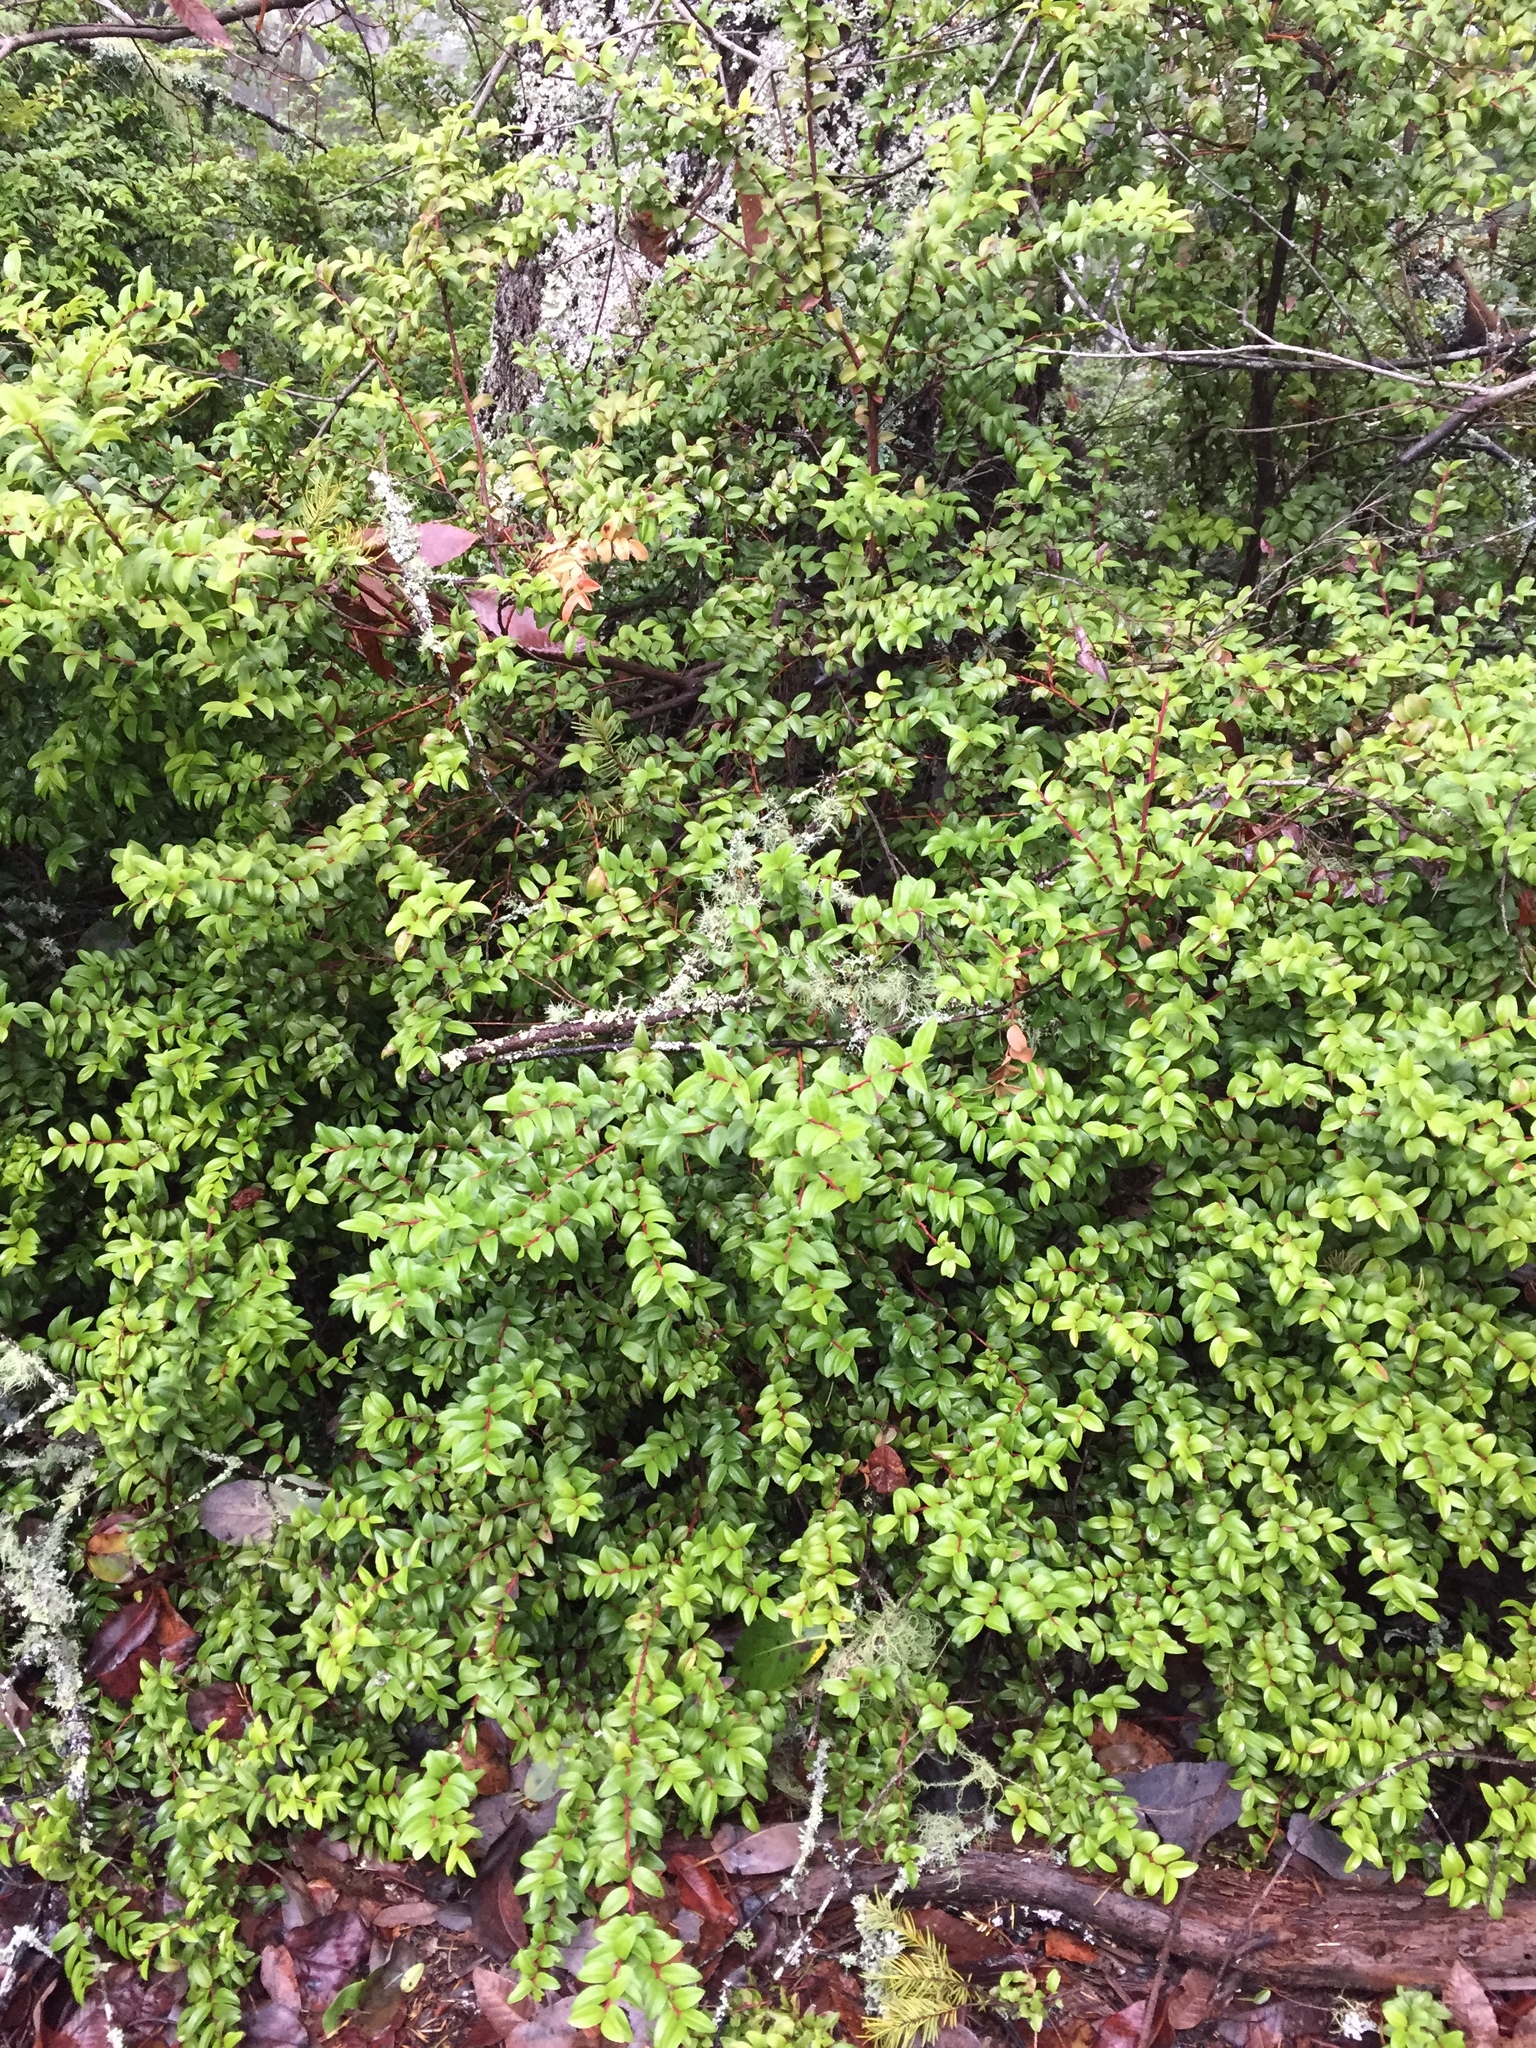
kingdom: Plantae
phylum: Tracheophyta
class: Magnoliopsida
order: Ericales
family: Ericaceae
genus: Vaccinium
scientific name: Vaccinium ovatum
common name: California-huckleberry
